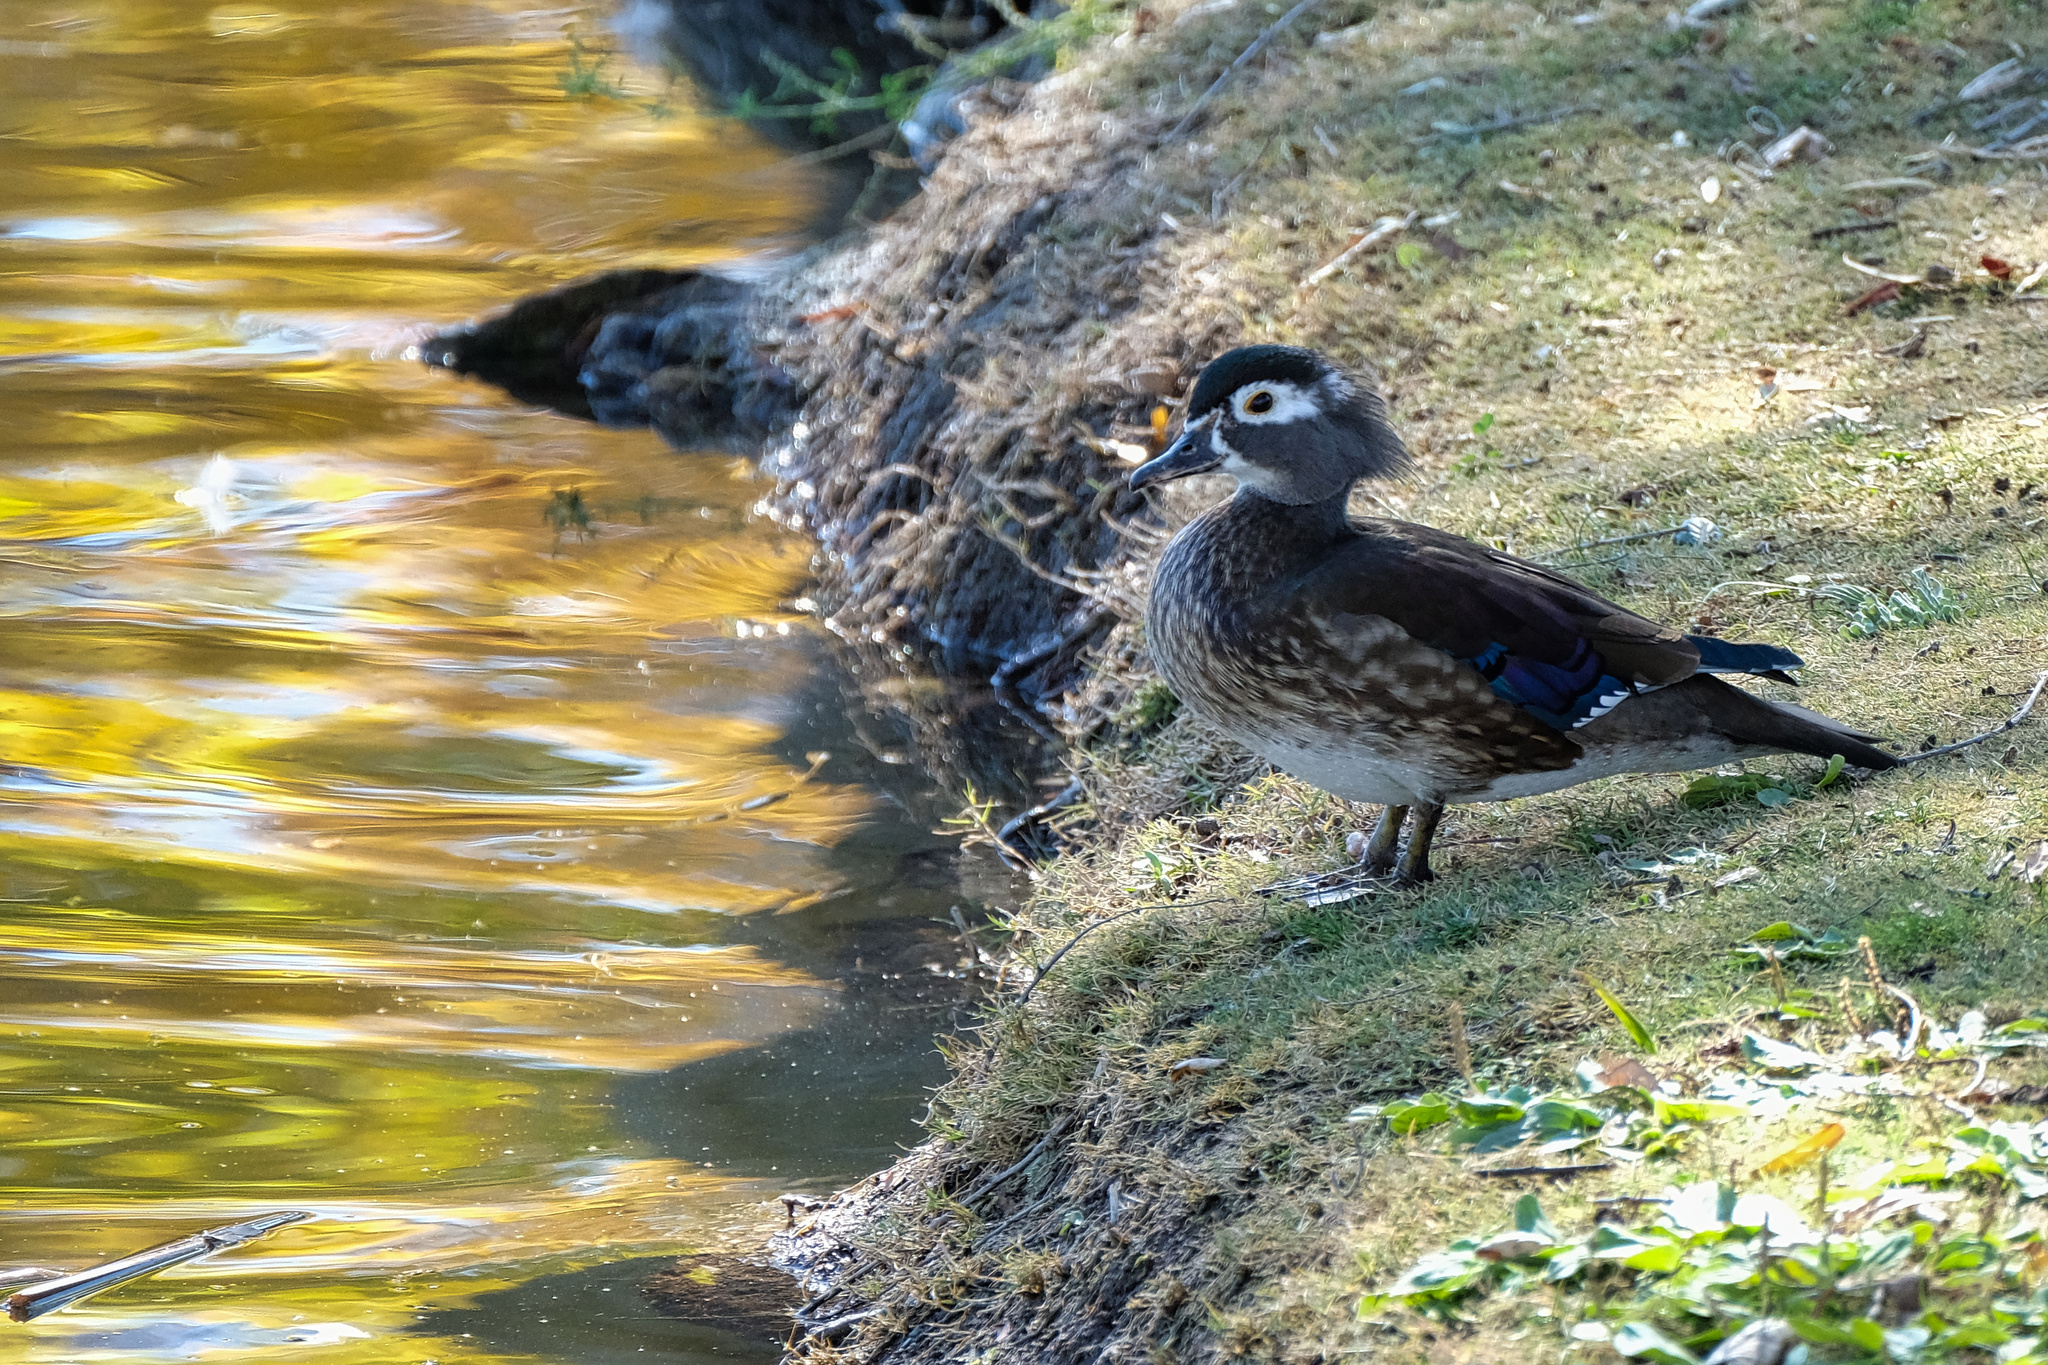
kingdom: Animalia
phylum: Chordata
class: Aves
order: Anseriformes
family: Anatidae
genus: Aix
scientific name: Aix sponsa
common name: Wood duck
